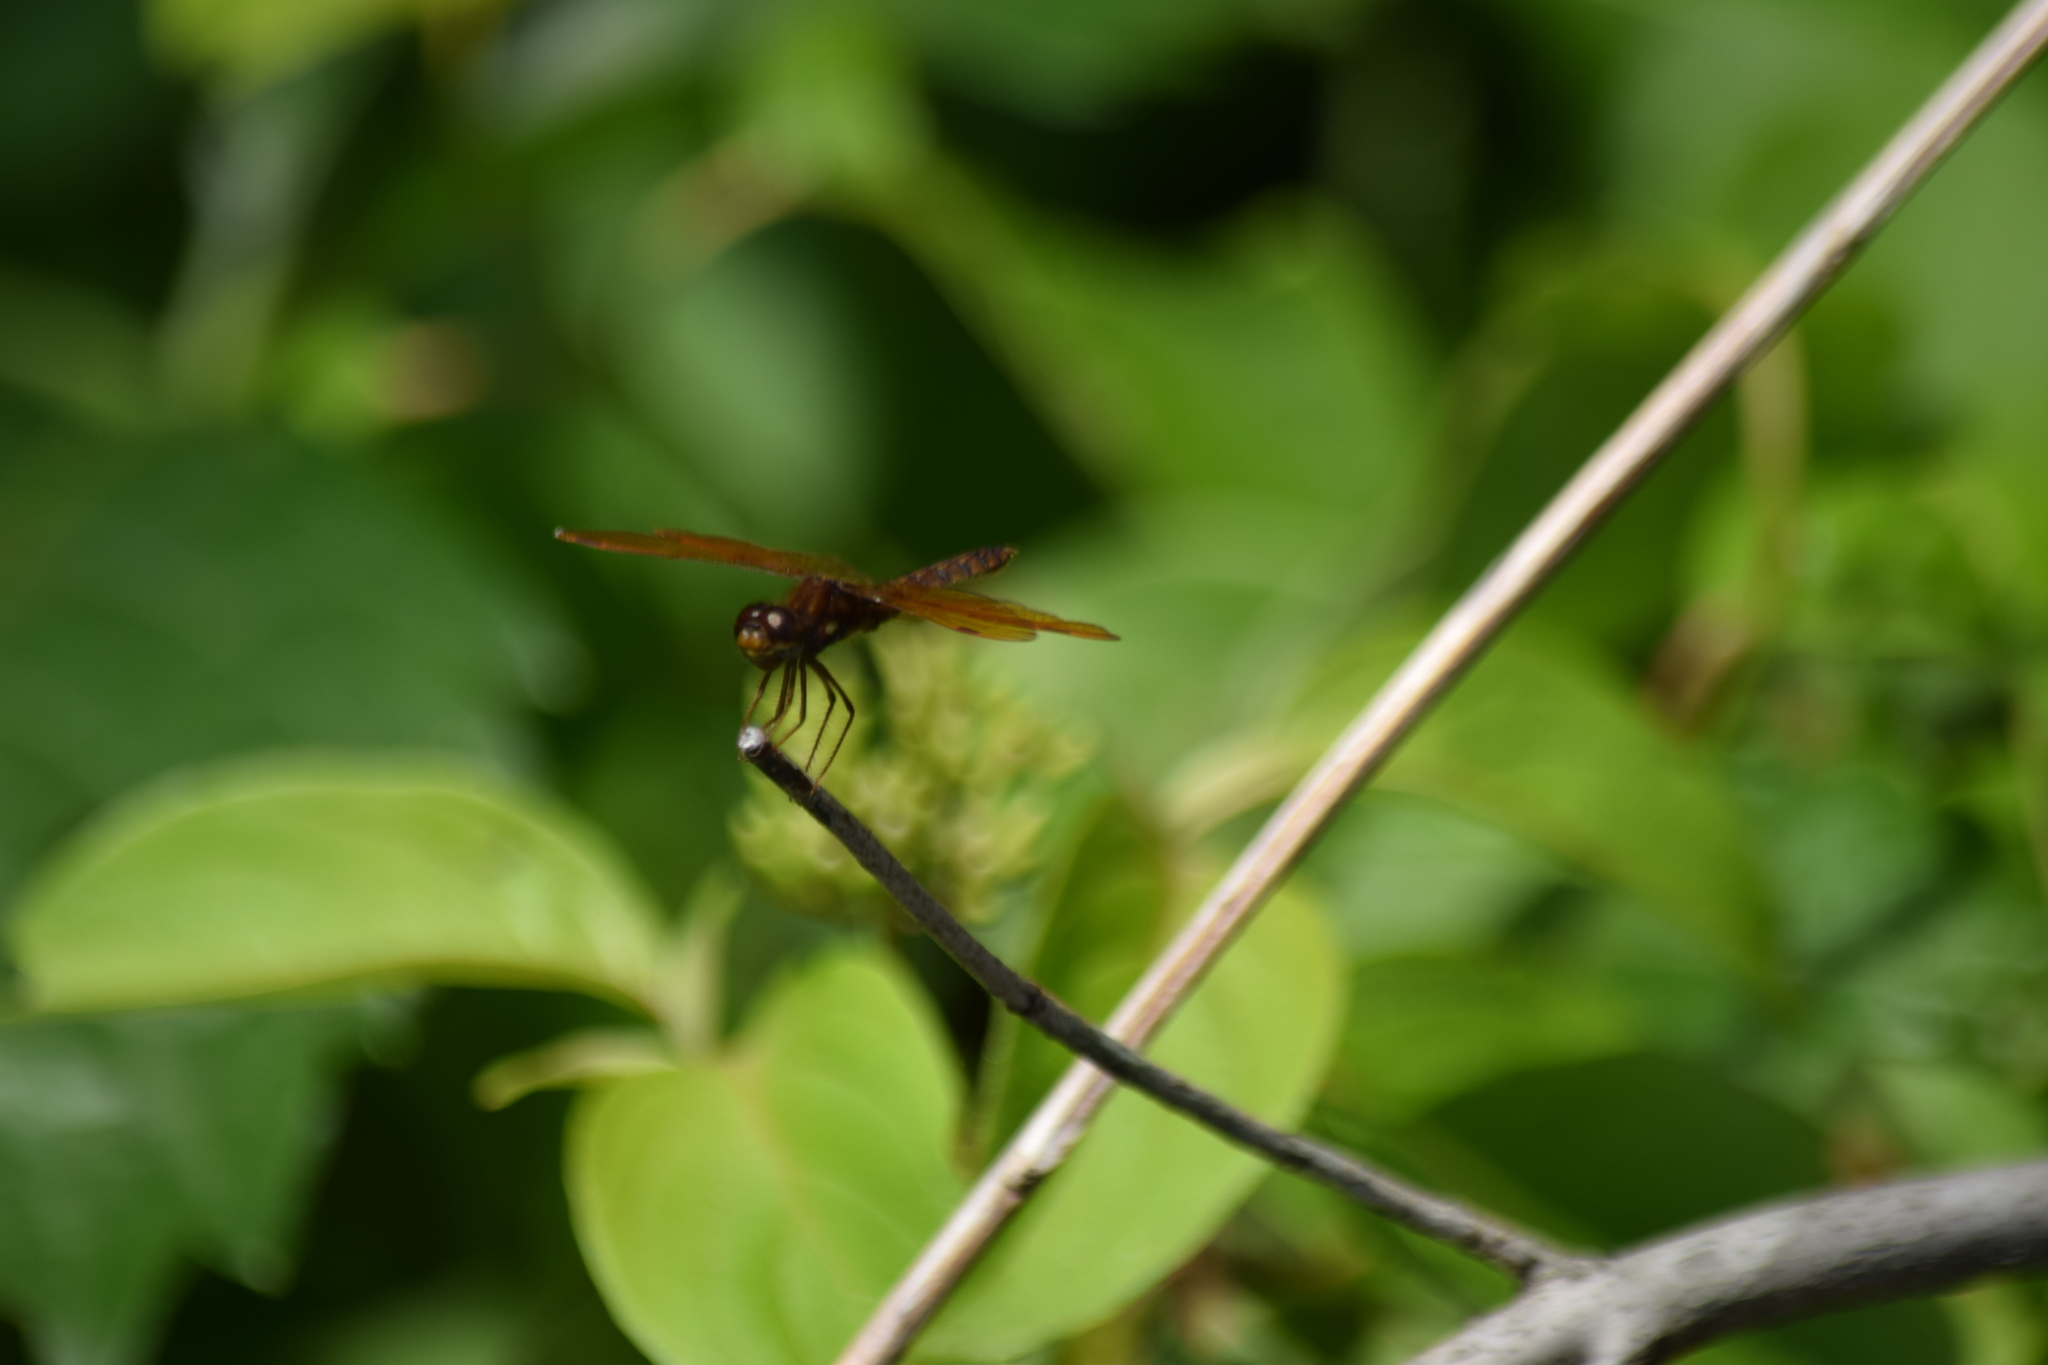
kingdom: Animalia
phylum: Arthropoda
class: Insecta
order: Odonata
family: Libellulidae
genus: Perithemis
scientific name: Perithemis tenera
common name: Eastern amberwing
